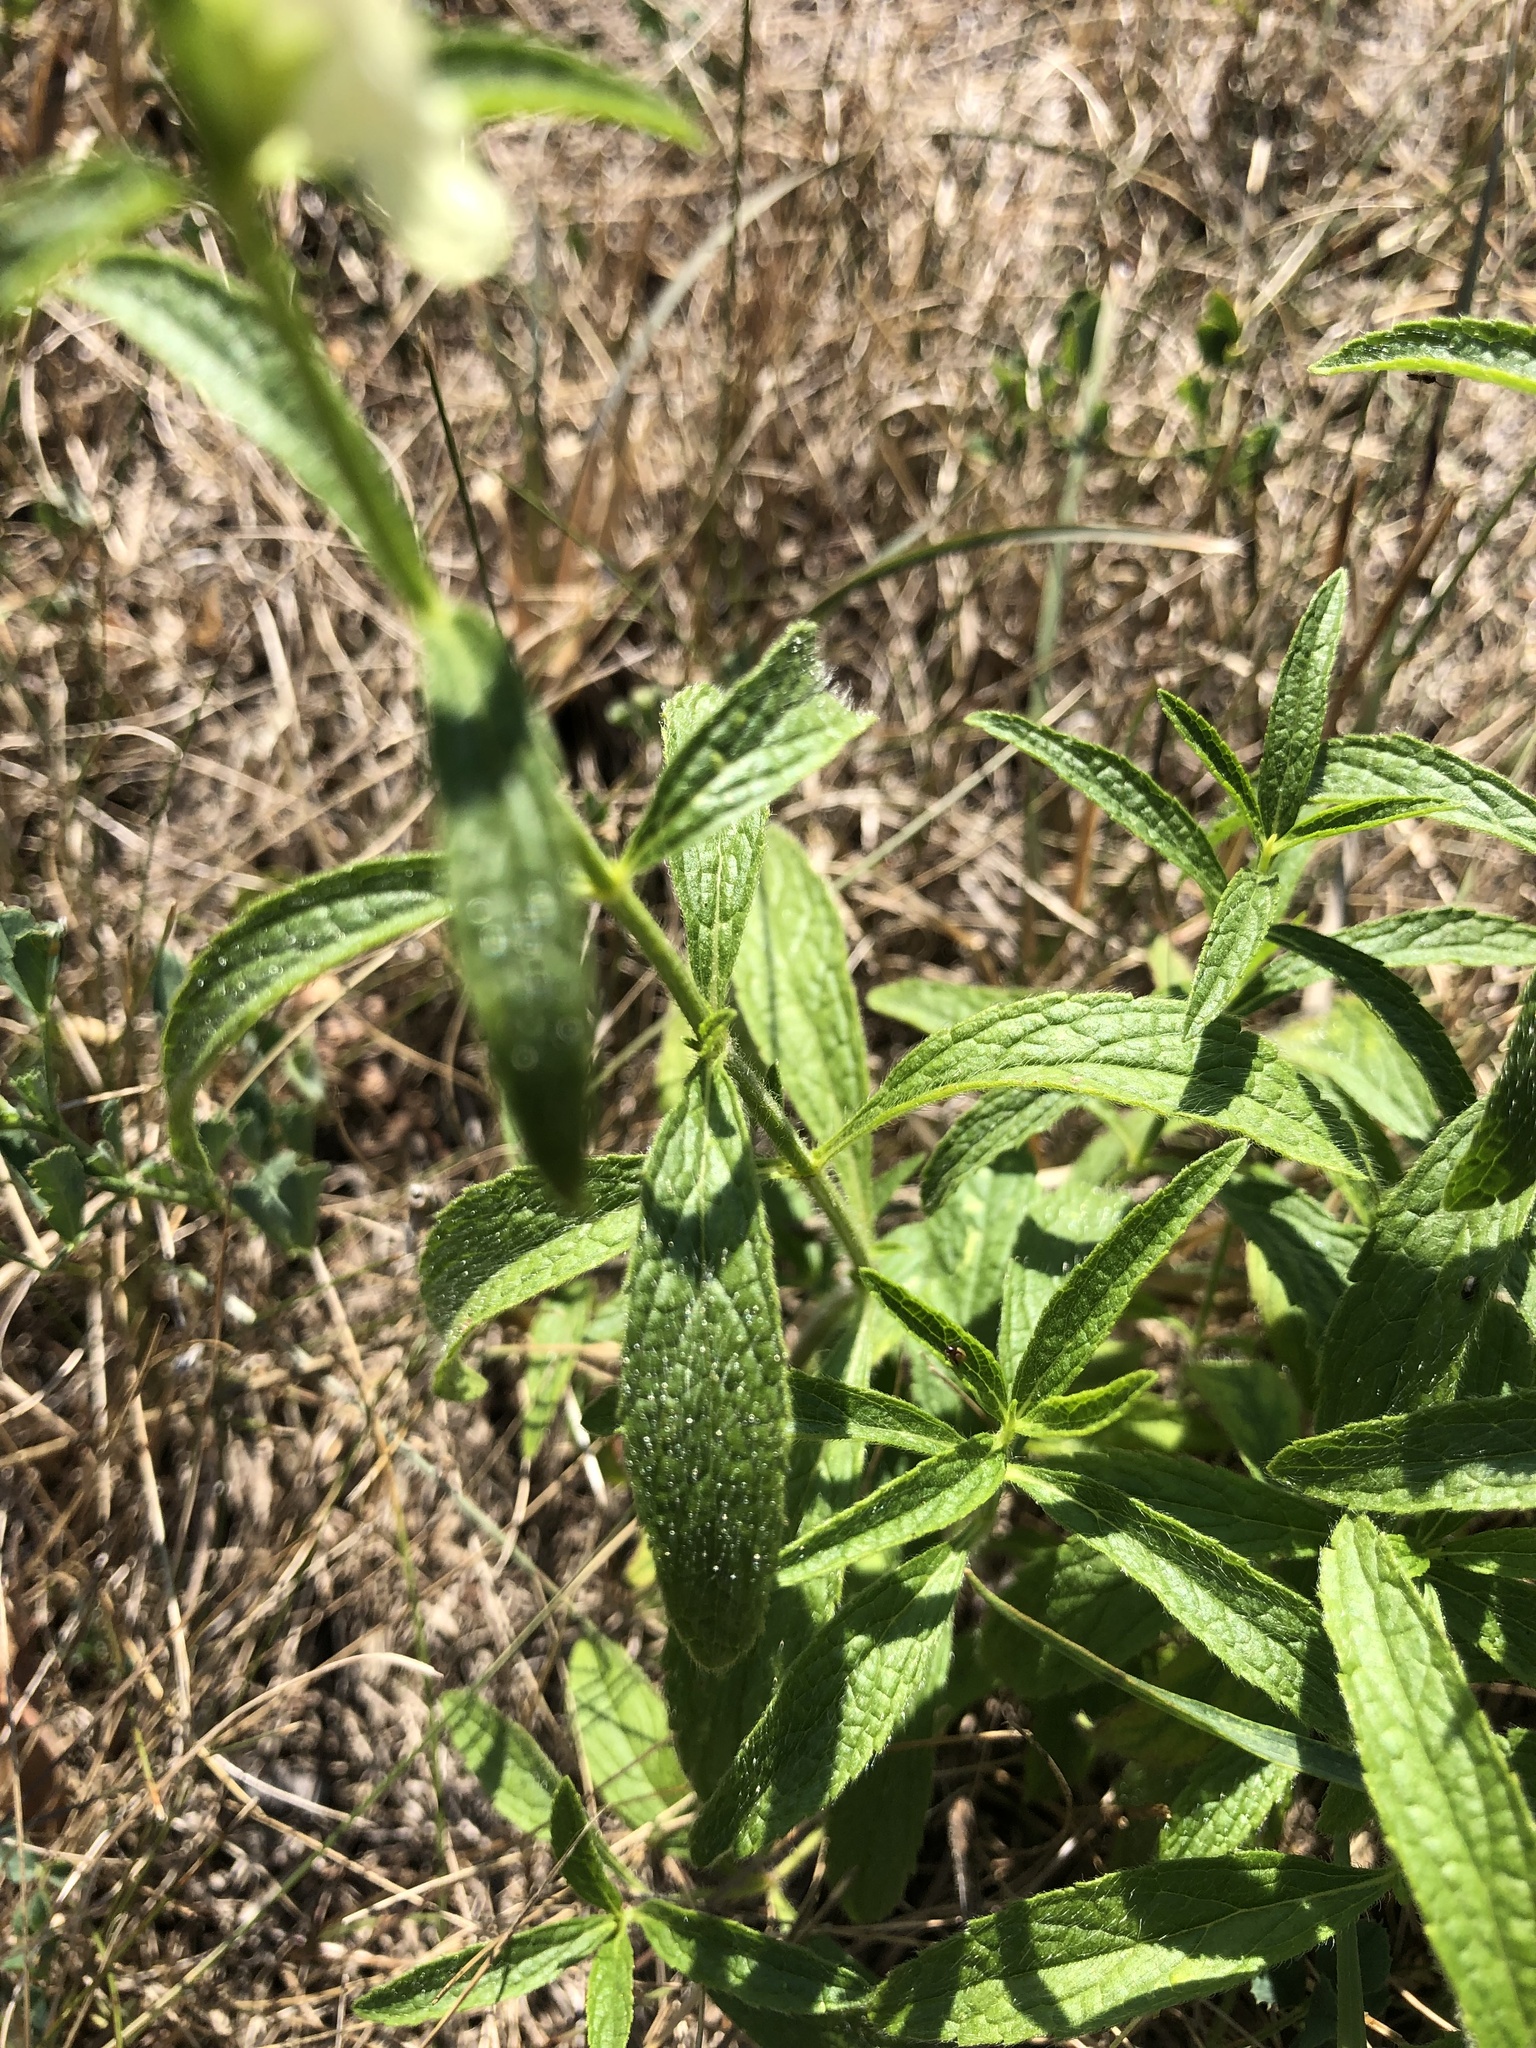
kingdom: Plantae
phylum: Tracheophyta
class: Magnoliopsida
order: Lamiales
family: Lamiaceae
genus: Stachys
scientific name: Stachys recta
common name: Perennial yellow-woundwort
